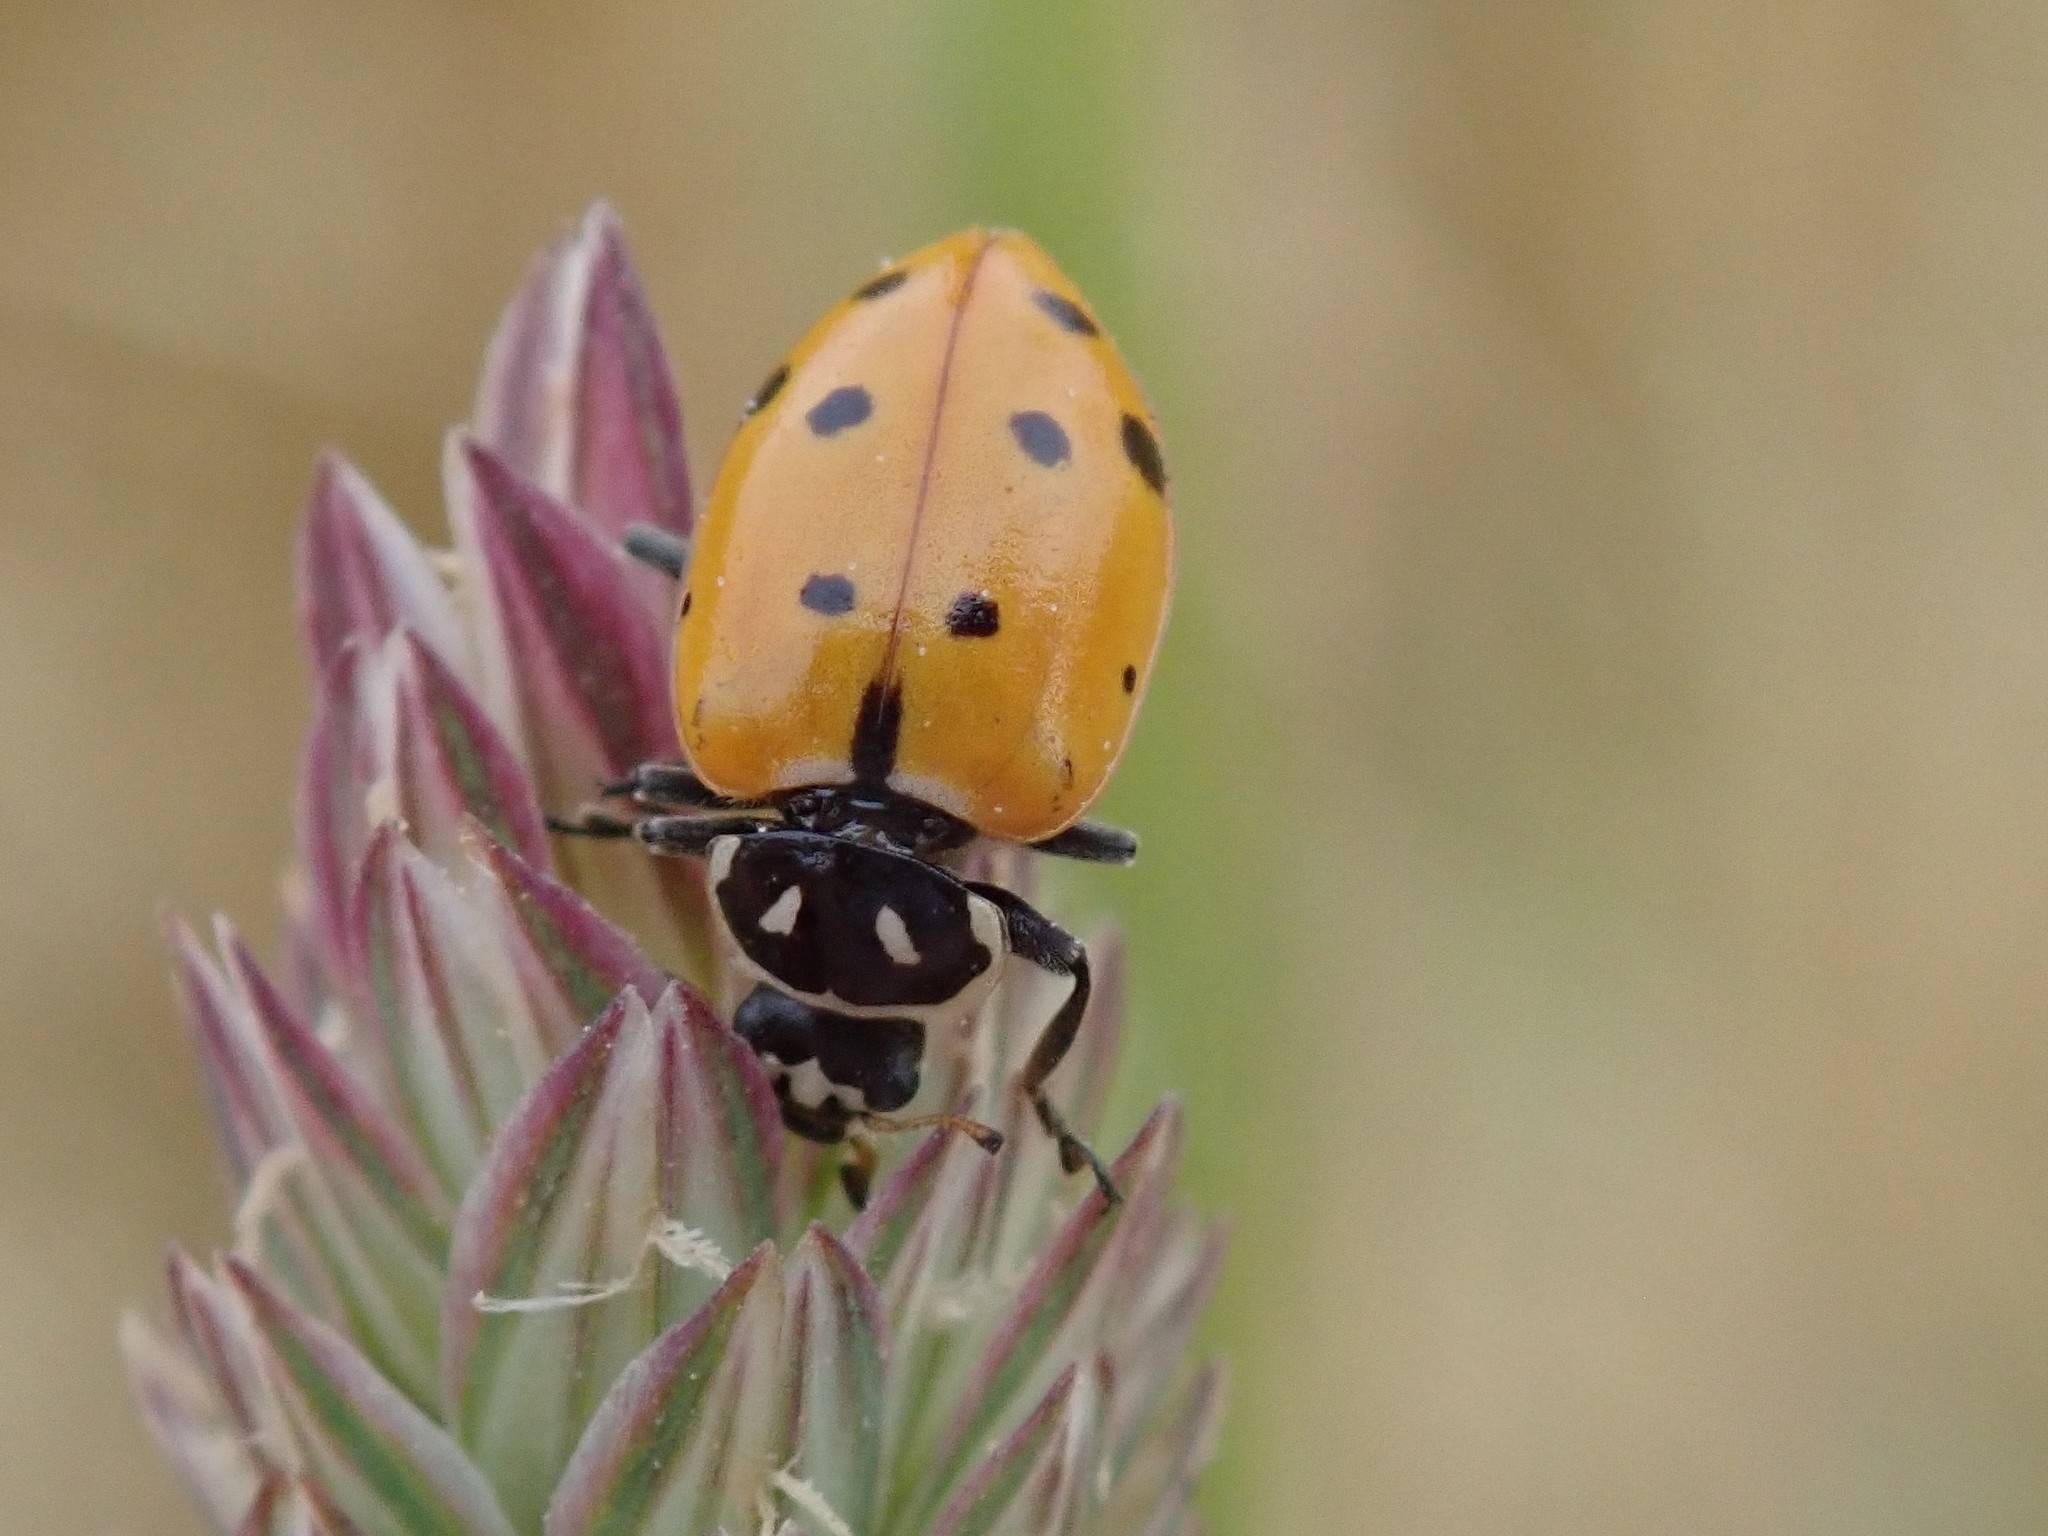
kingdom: Animalia
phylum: Arthropoda
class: Insecta
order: Coleoptera
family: Coccinellidae
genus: Hippodamia
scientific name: Hippodamia convergens
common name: Convergent lady beetle
